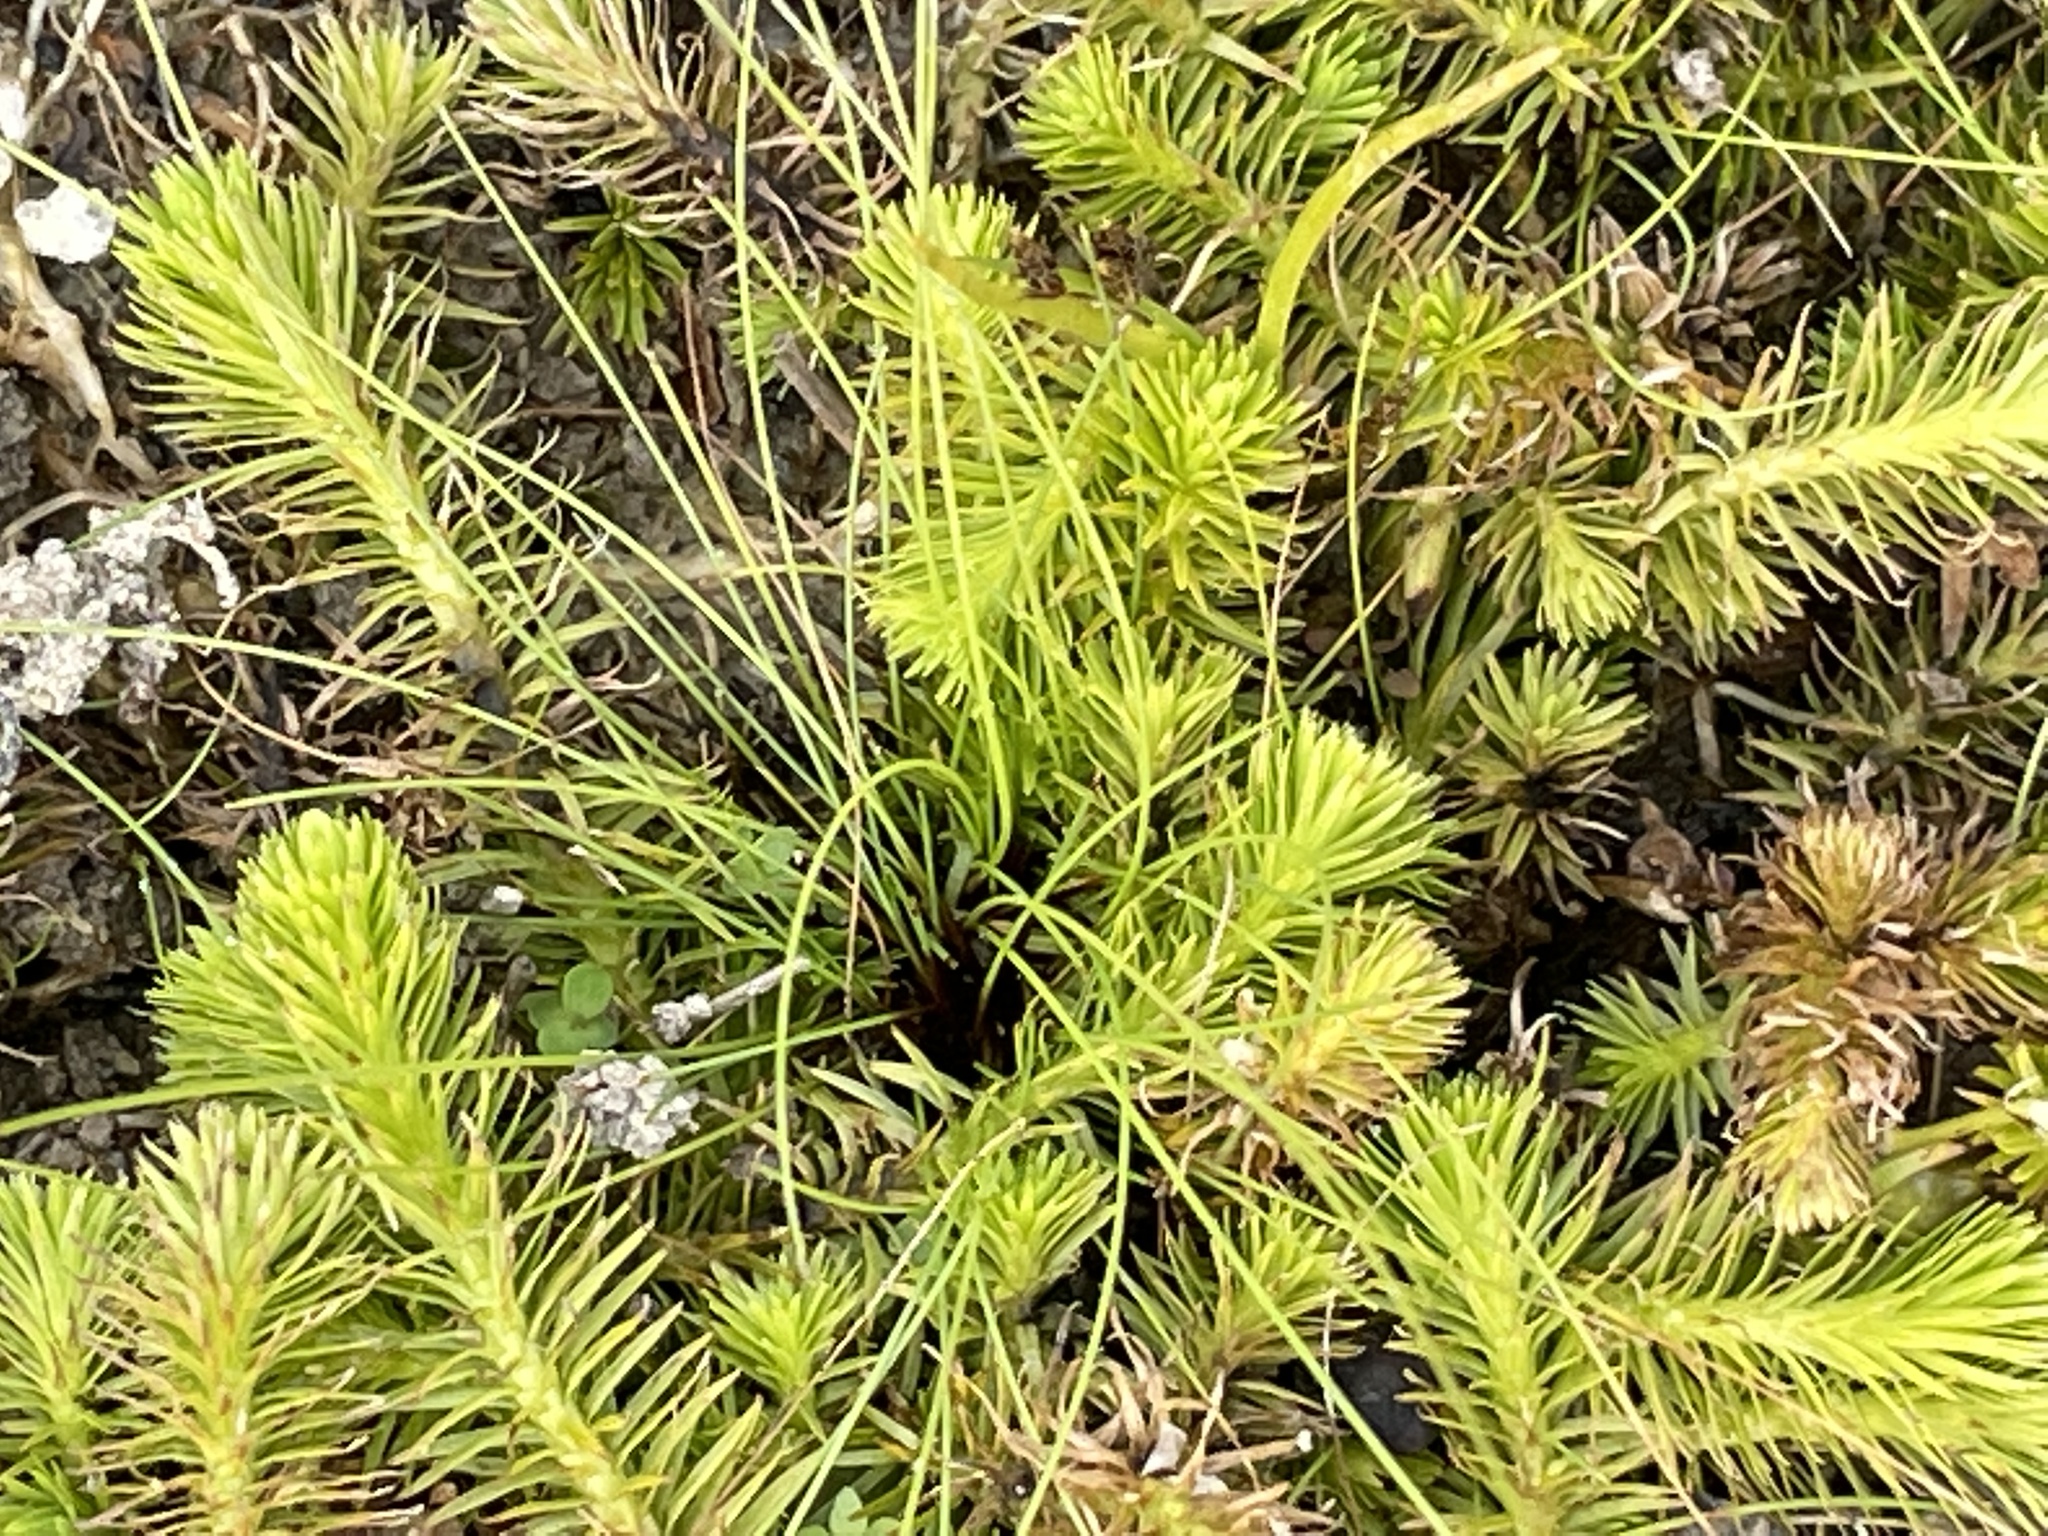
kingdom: Plantae
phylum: Tracheophyta
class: Liliopsida
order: Poales
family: Mayacaceae
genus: Mayaca
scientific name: Mayaca fluviatilis
